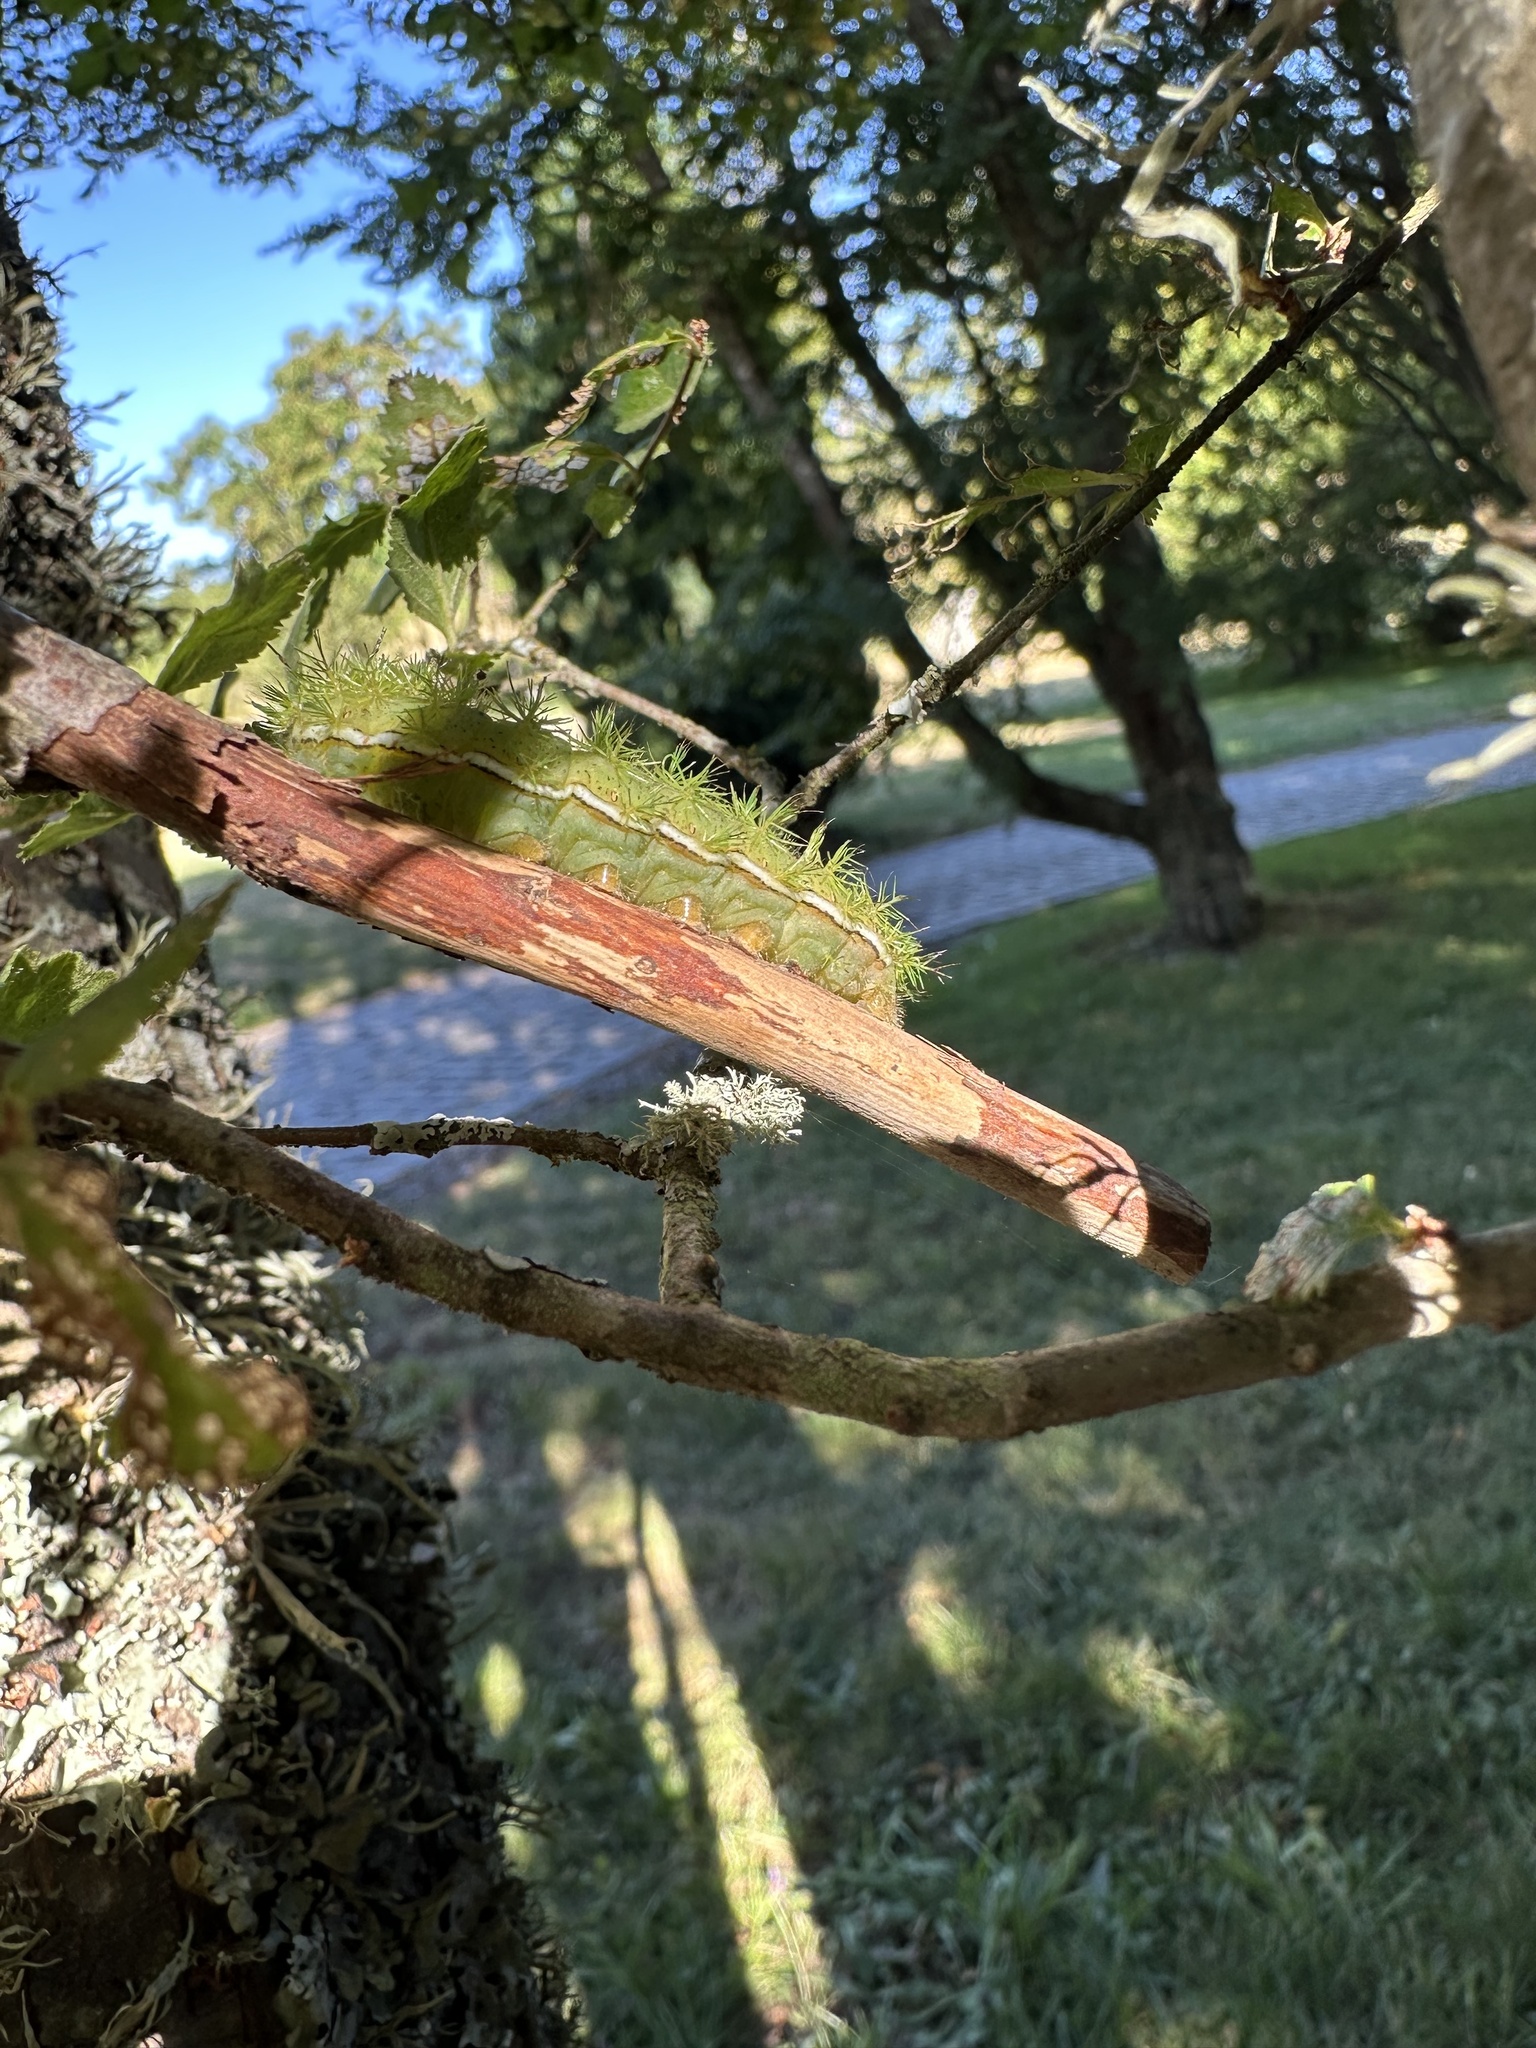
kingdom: Animalia
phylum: Arthropoda
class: Insecta
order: Lepidoptera
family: Saturniidae
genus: Adetomeris
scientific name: Adetomeris erythrops
